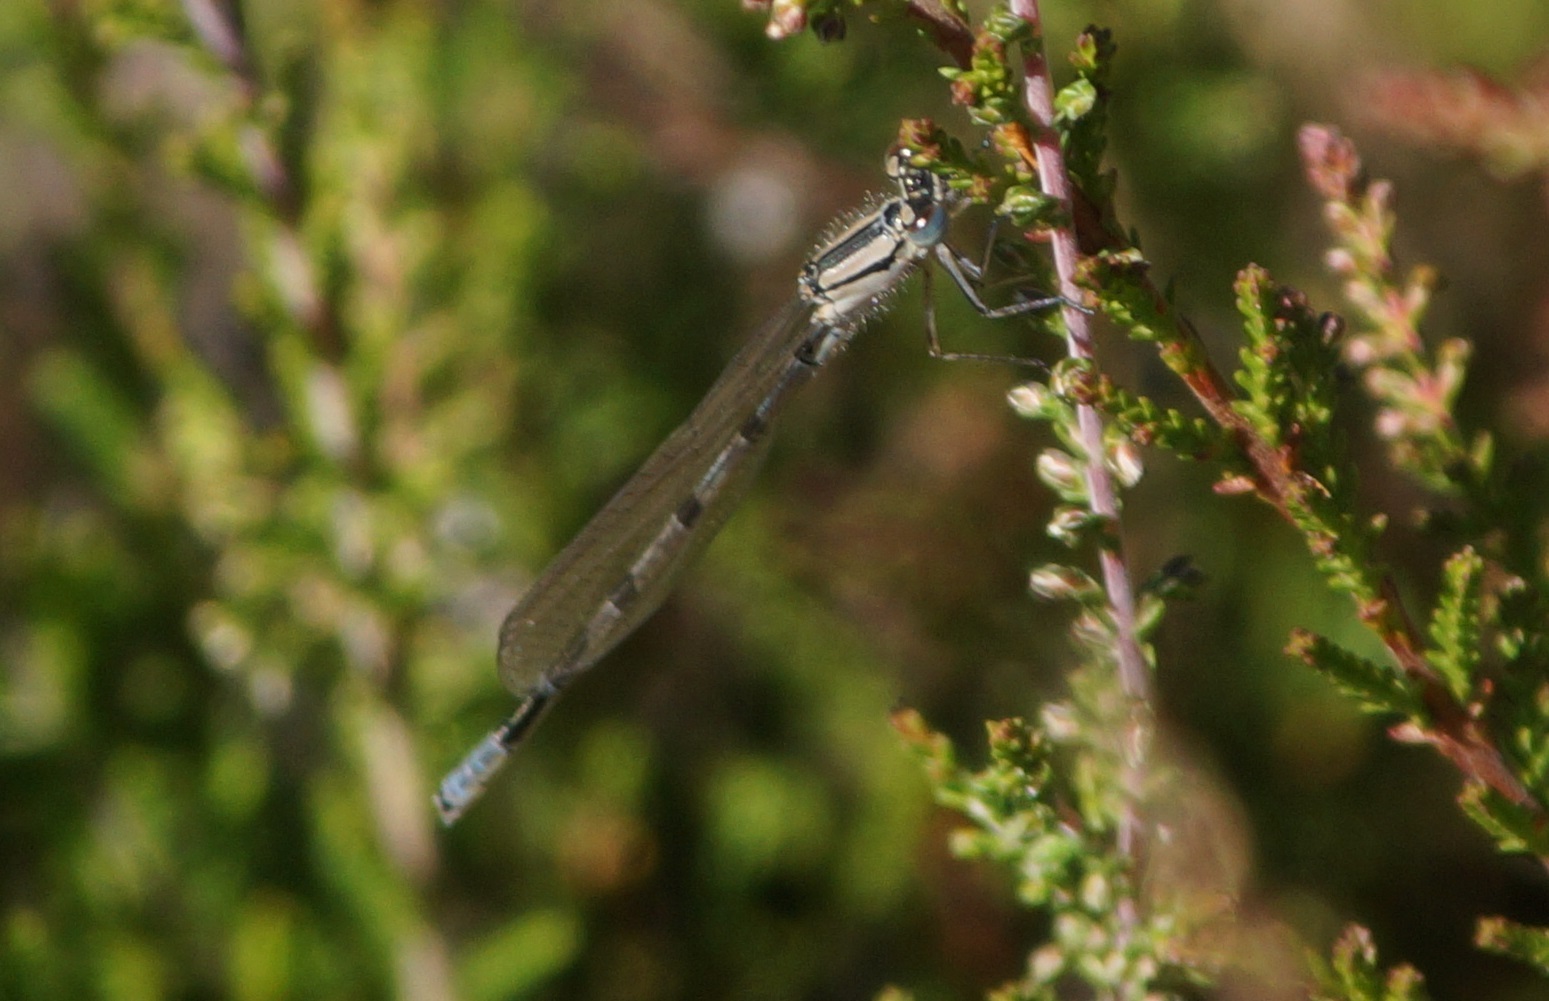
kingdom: Animalia
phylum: Arthropoda
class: Insecta
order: Odonata
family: Coenagrionidae
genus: Enallagma
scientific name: Enallagma cyathigerum
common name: Common blue damselfly
